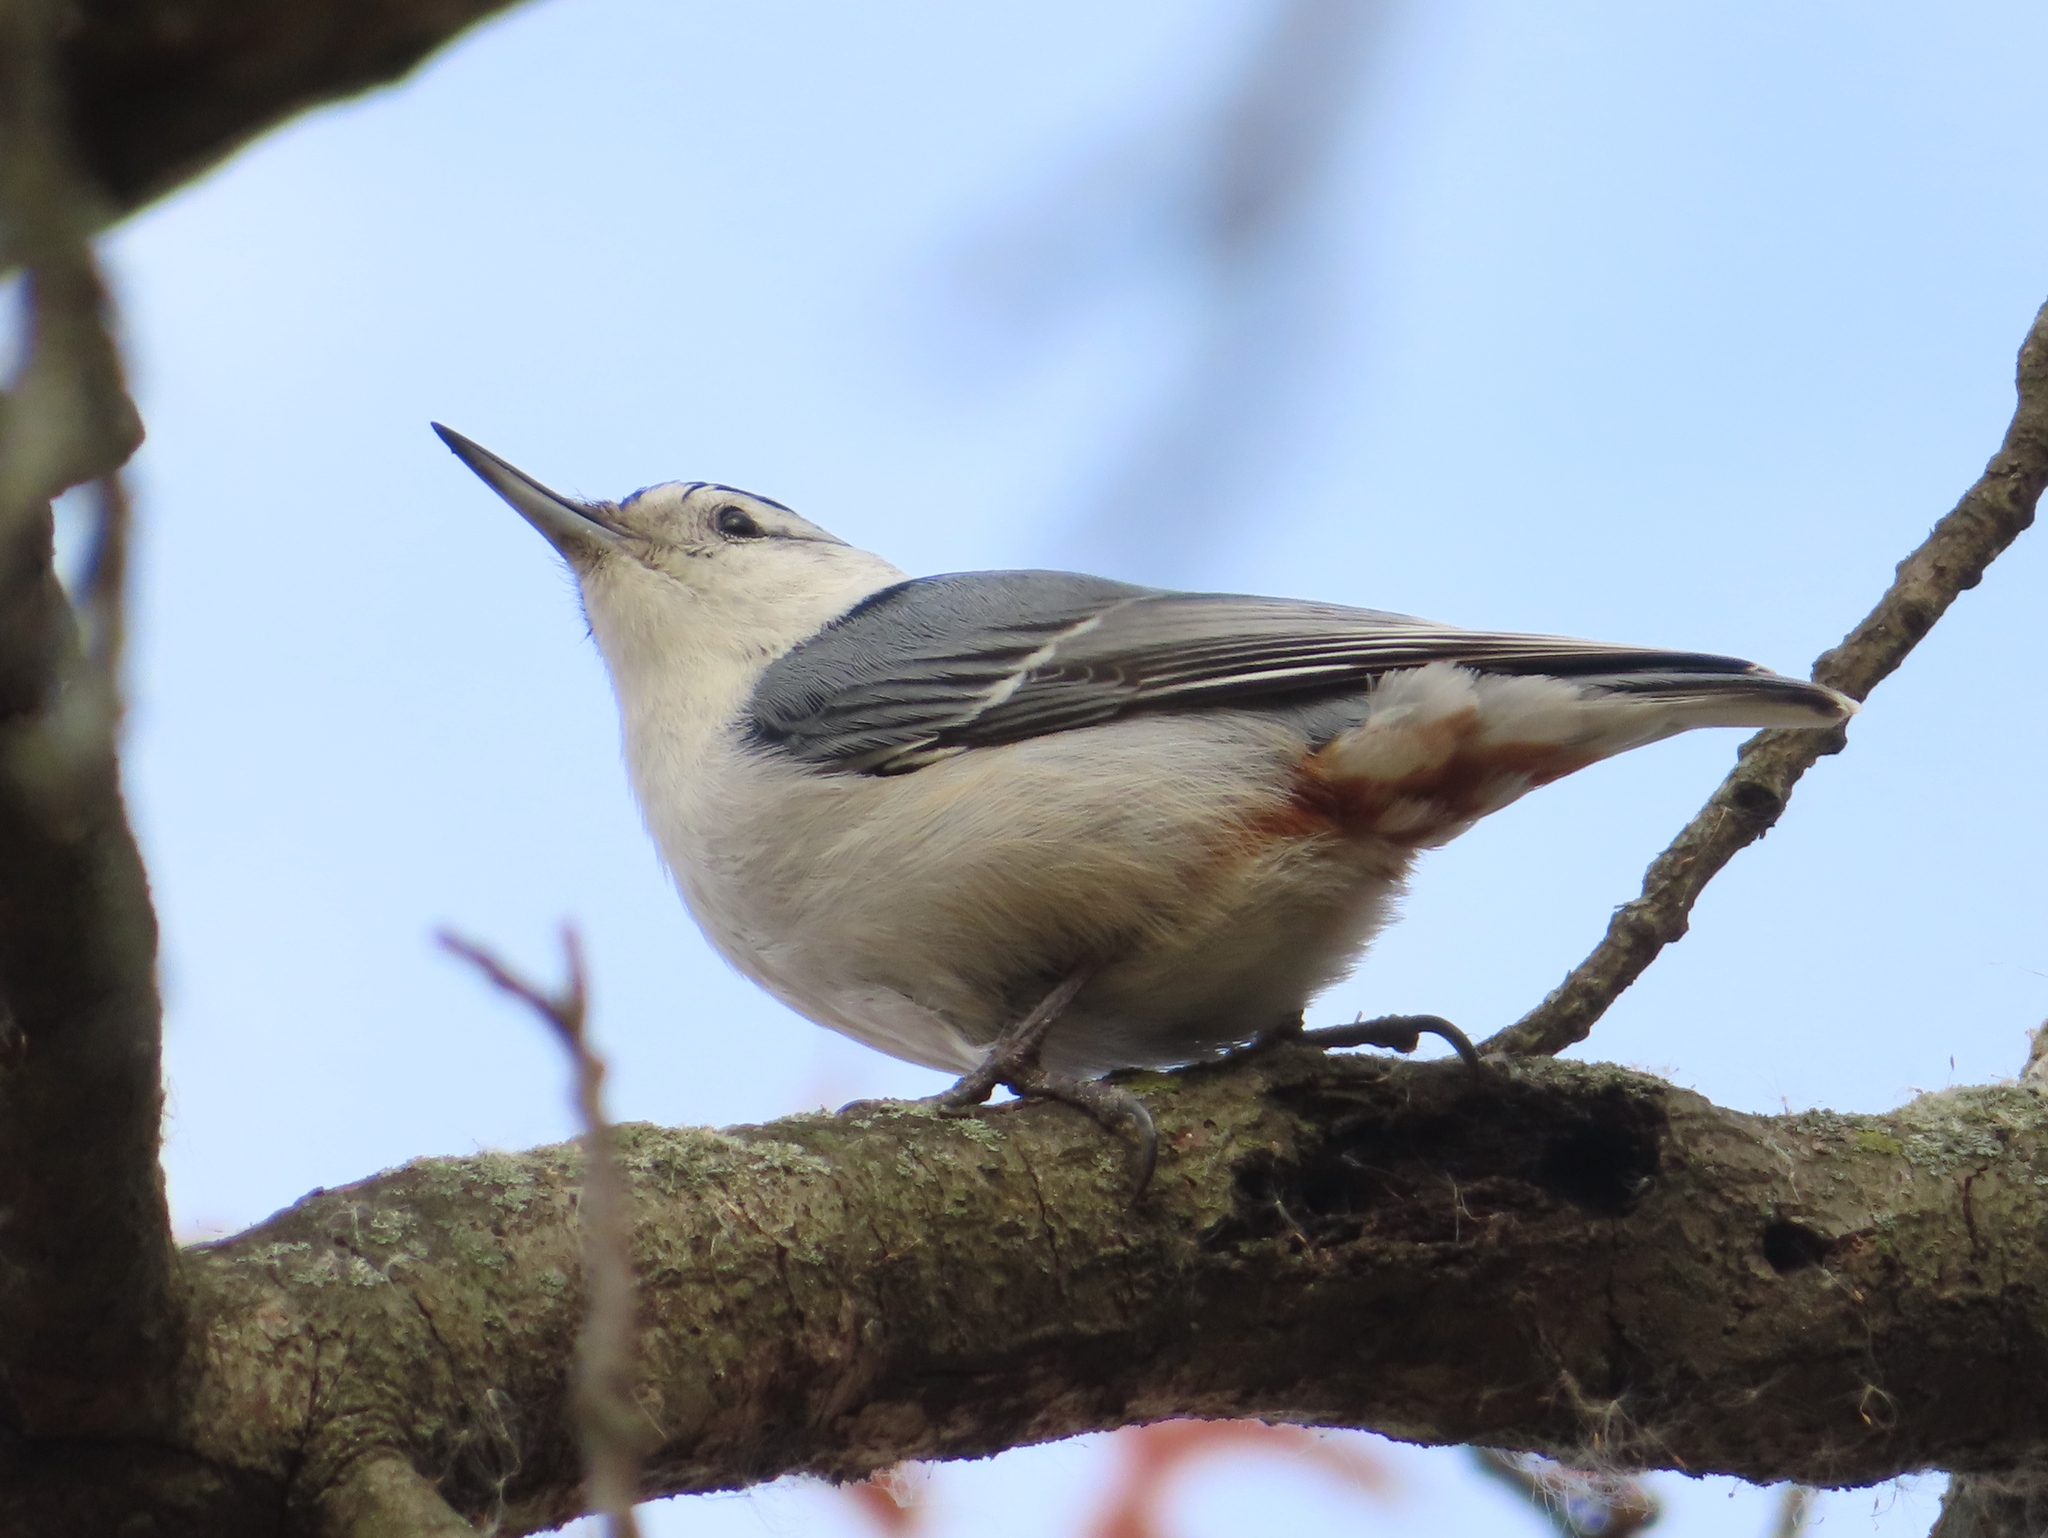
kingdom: Animalia
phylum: Chordata
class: Aves
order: Passeriformes
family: Sittidae
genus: Sitta
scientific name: Sitta carolinensis
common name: White-breasted nuthatch
